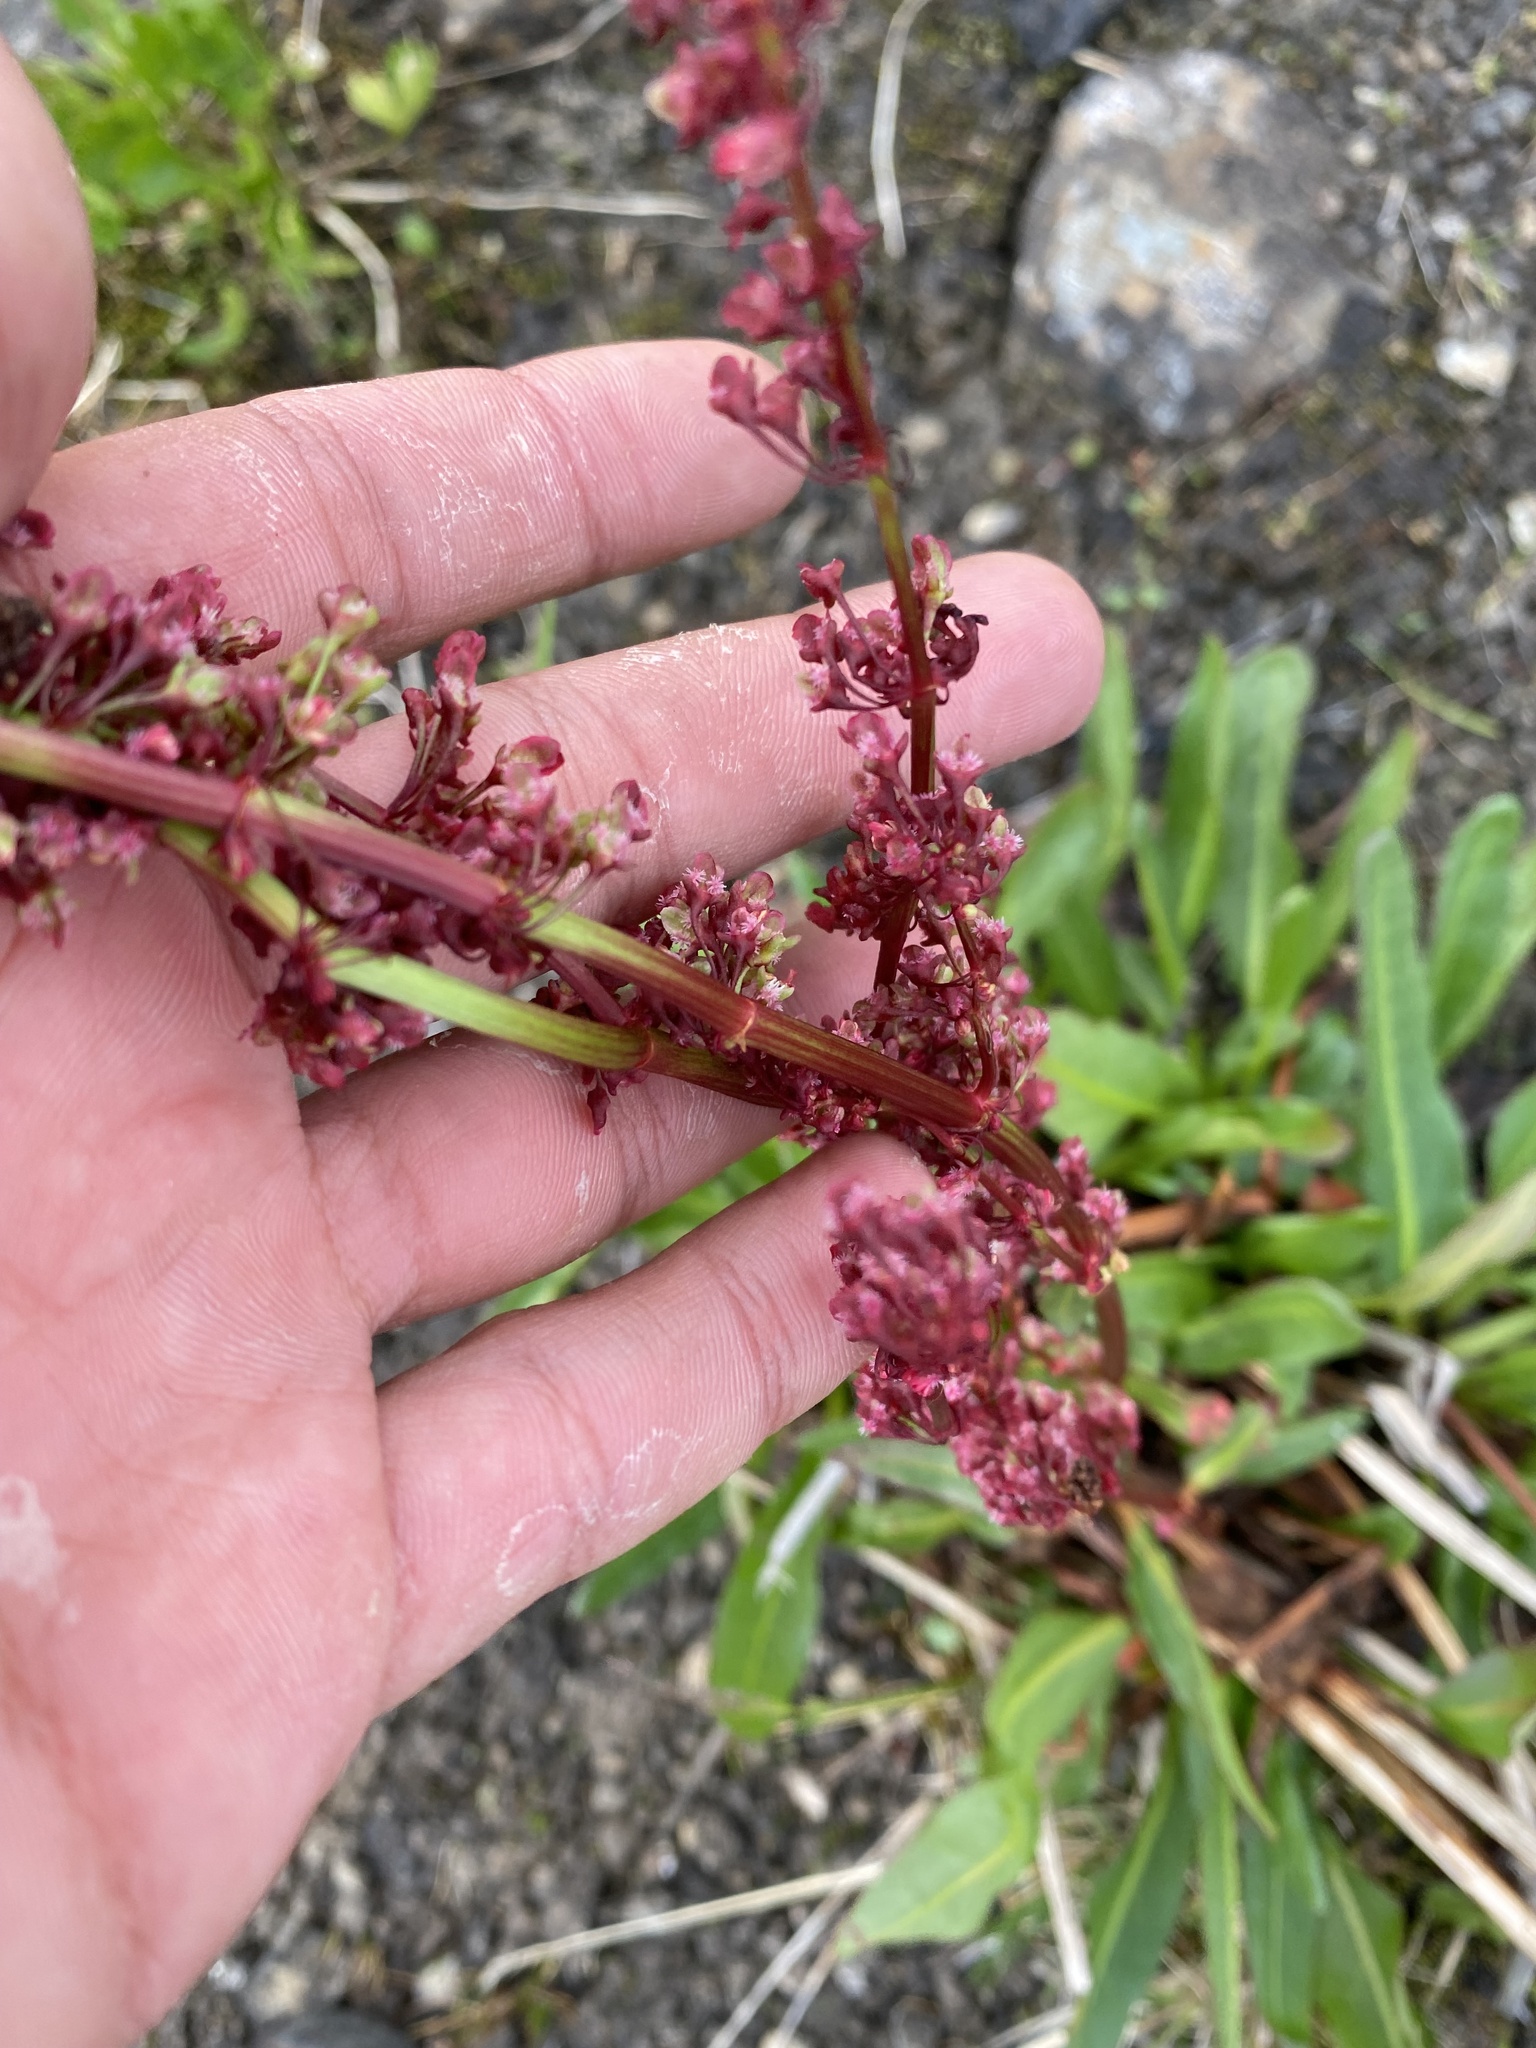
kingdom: Plantae
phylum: Tracheophyta
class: Magnoliopsida
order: Caryophyllales
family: Polygonaceae
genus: Rumex
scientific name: Rumex arcticus
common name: Arctic dock
